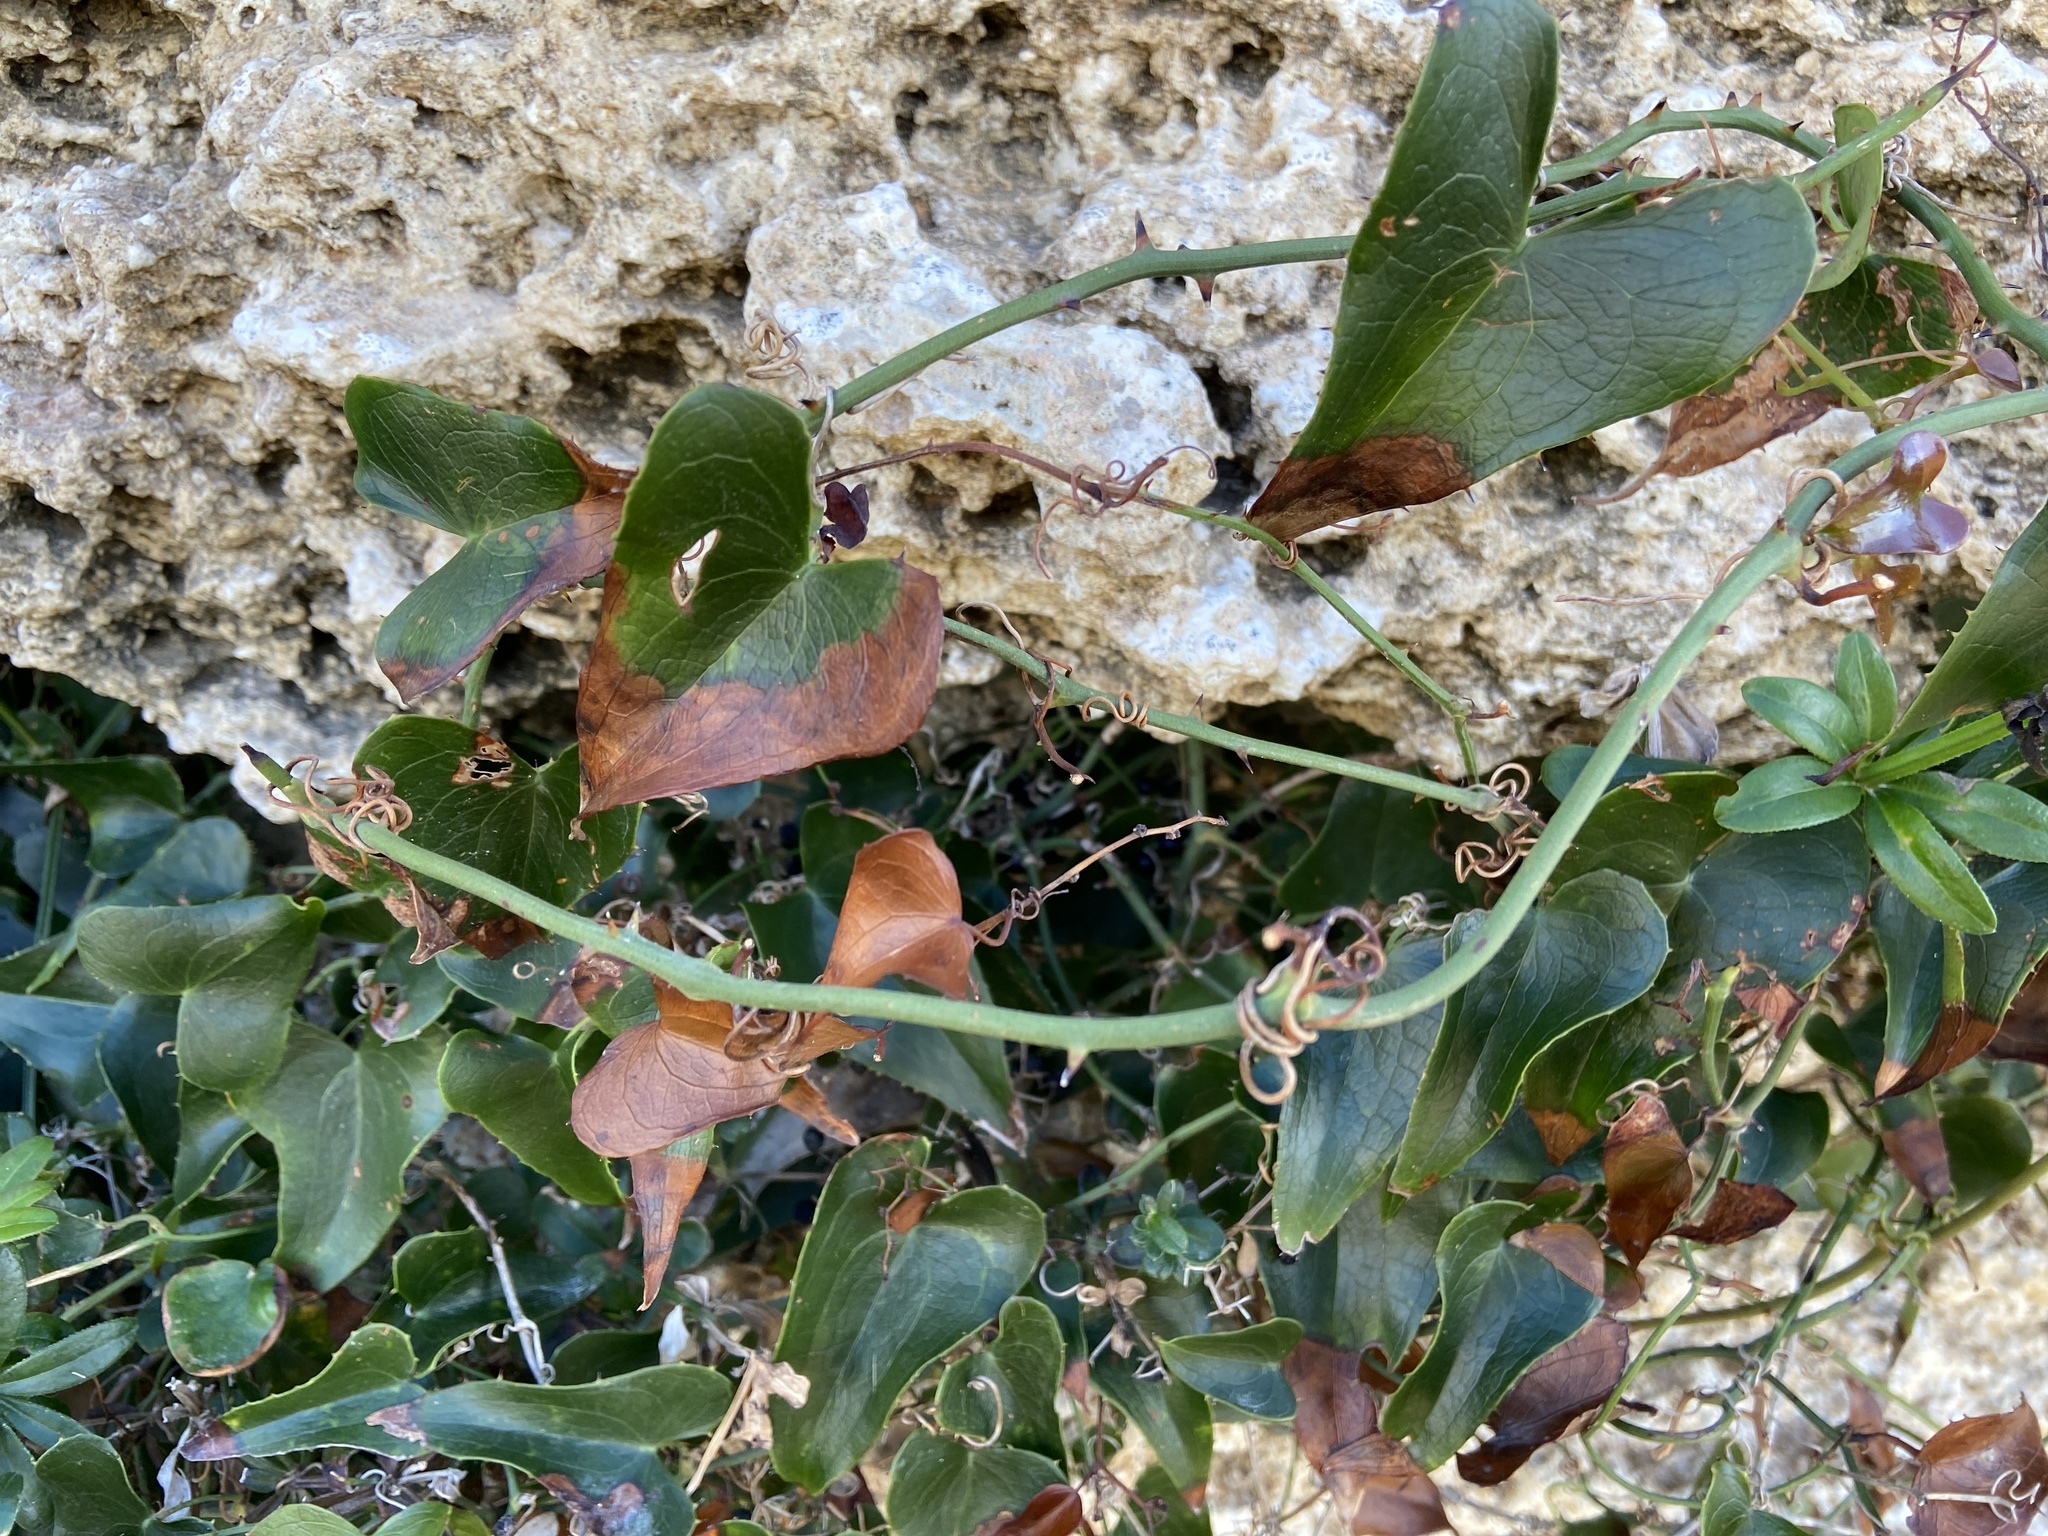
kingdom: Plantae
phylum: Tracheophyta
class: Liliopsida
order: Liliales
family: Smilacaceae
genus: Smilax
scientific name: Smilax aspera
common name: Common smilax
